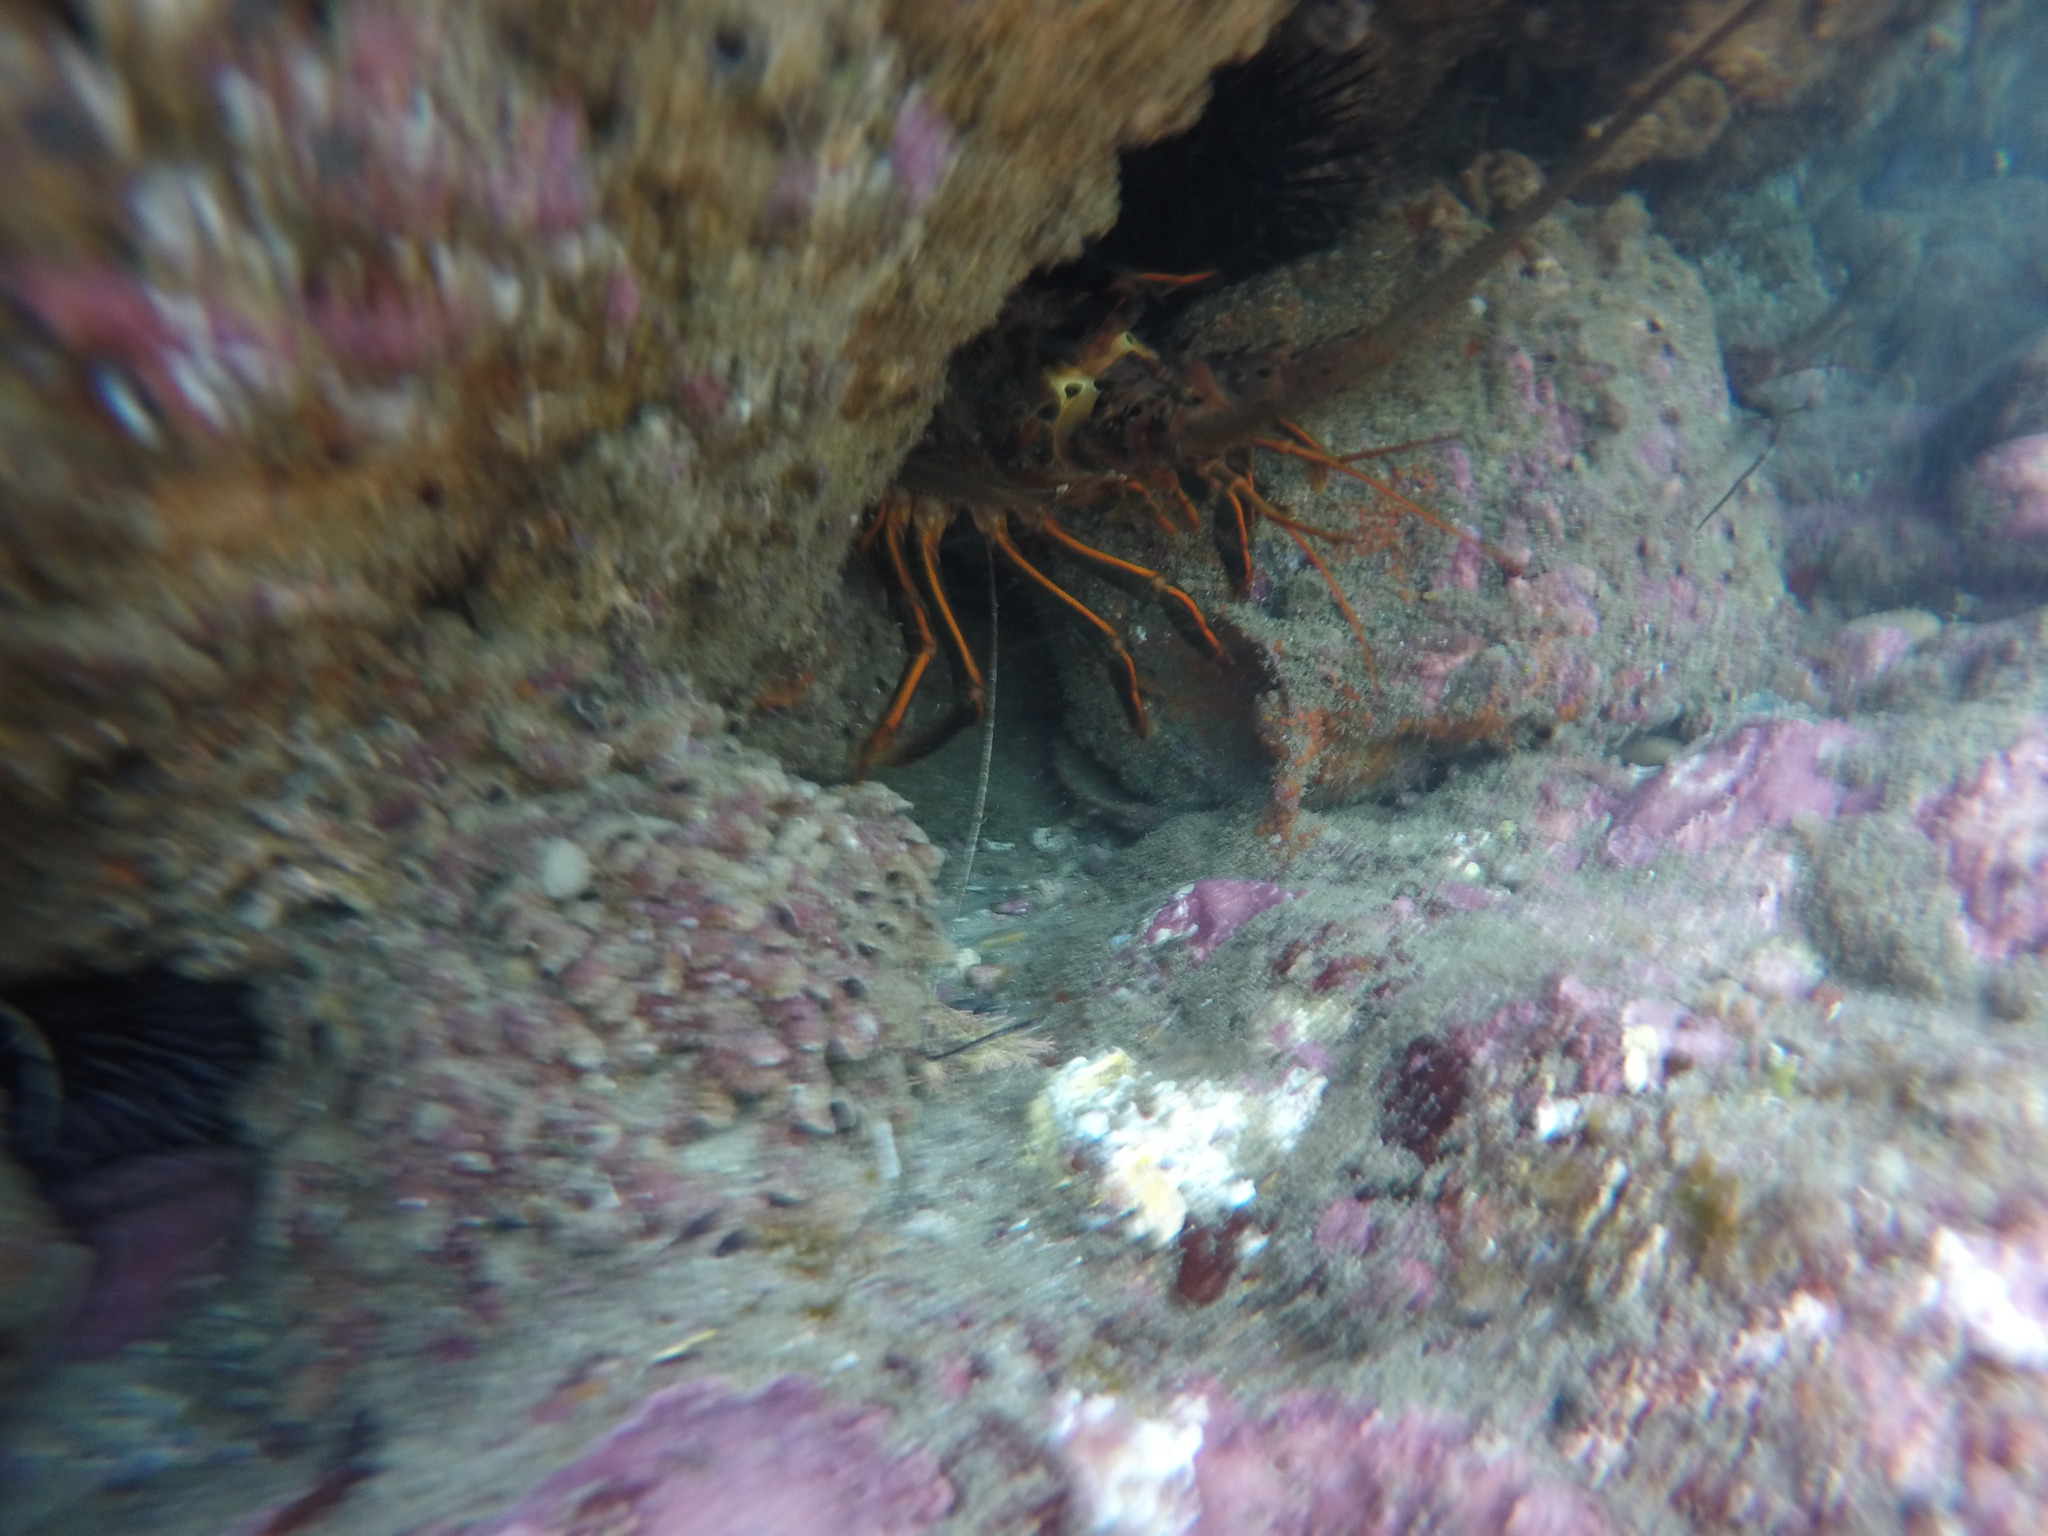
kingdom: Animalia
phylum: Arthropoda
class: Malacostraca
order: Decapoda
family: Palinuridae
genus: Panulirus
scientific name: Panulirus interruptus
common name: California spiny lobster
